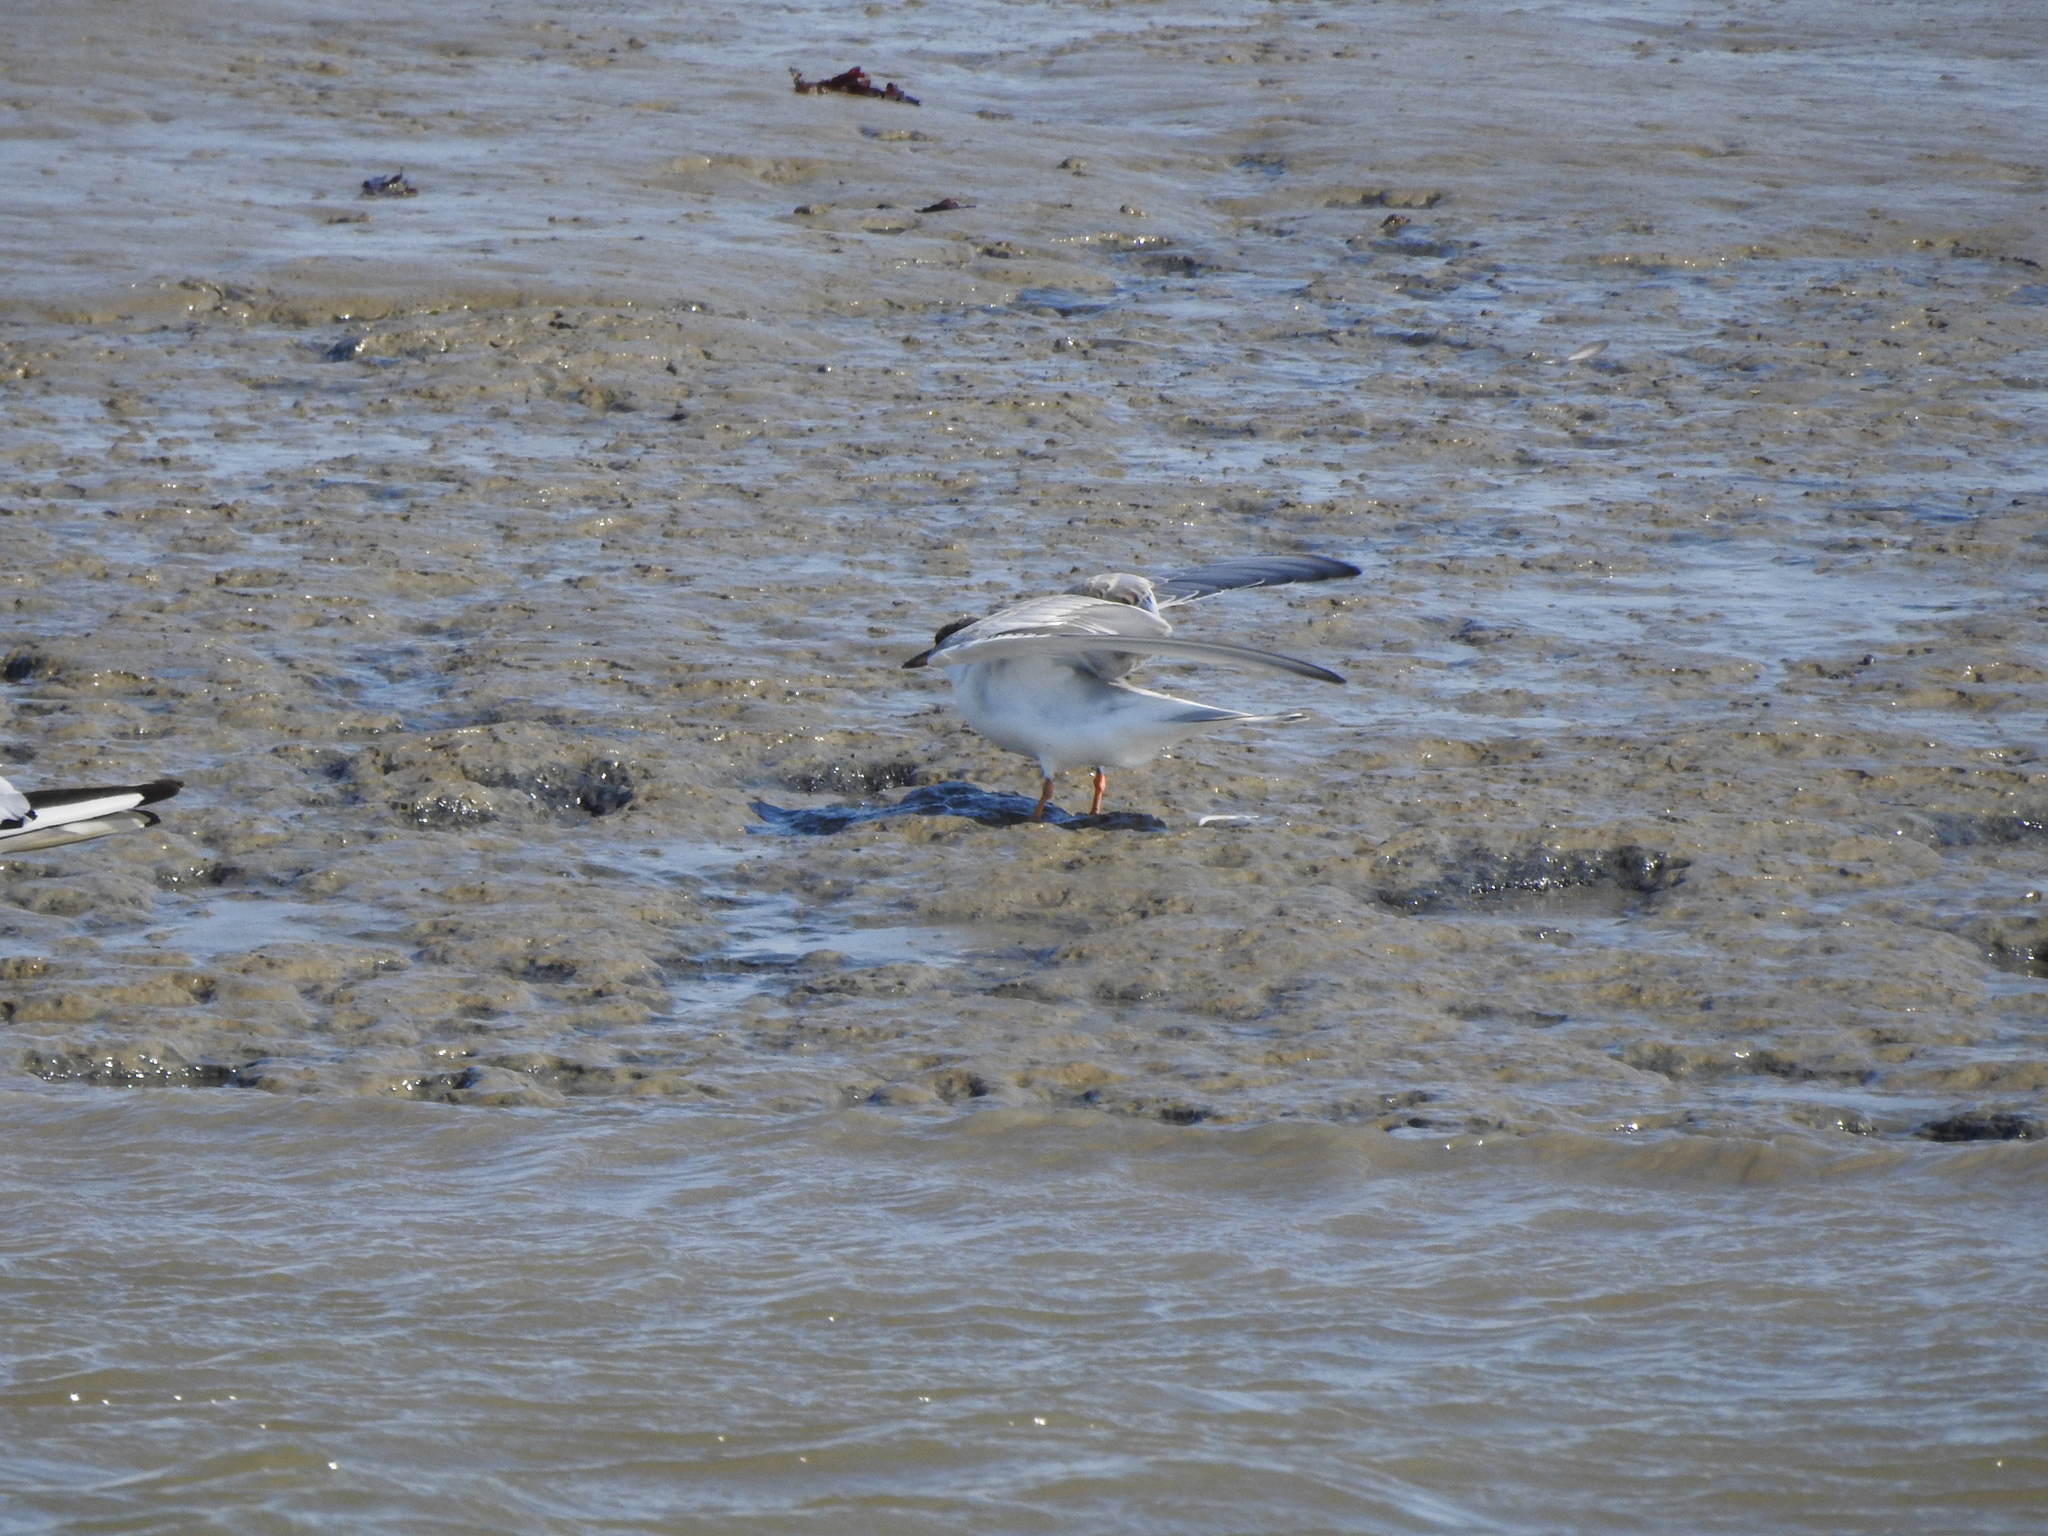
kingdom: Animalia
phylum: Chordata
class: Aves
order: Charadriiformes
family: Laridae
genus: Sterna
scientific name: Sterna hirundo
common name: Common tern
